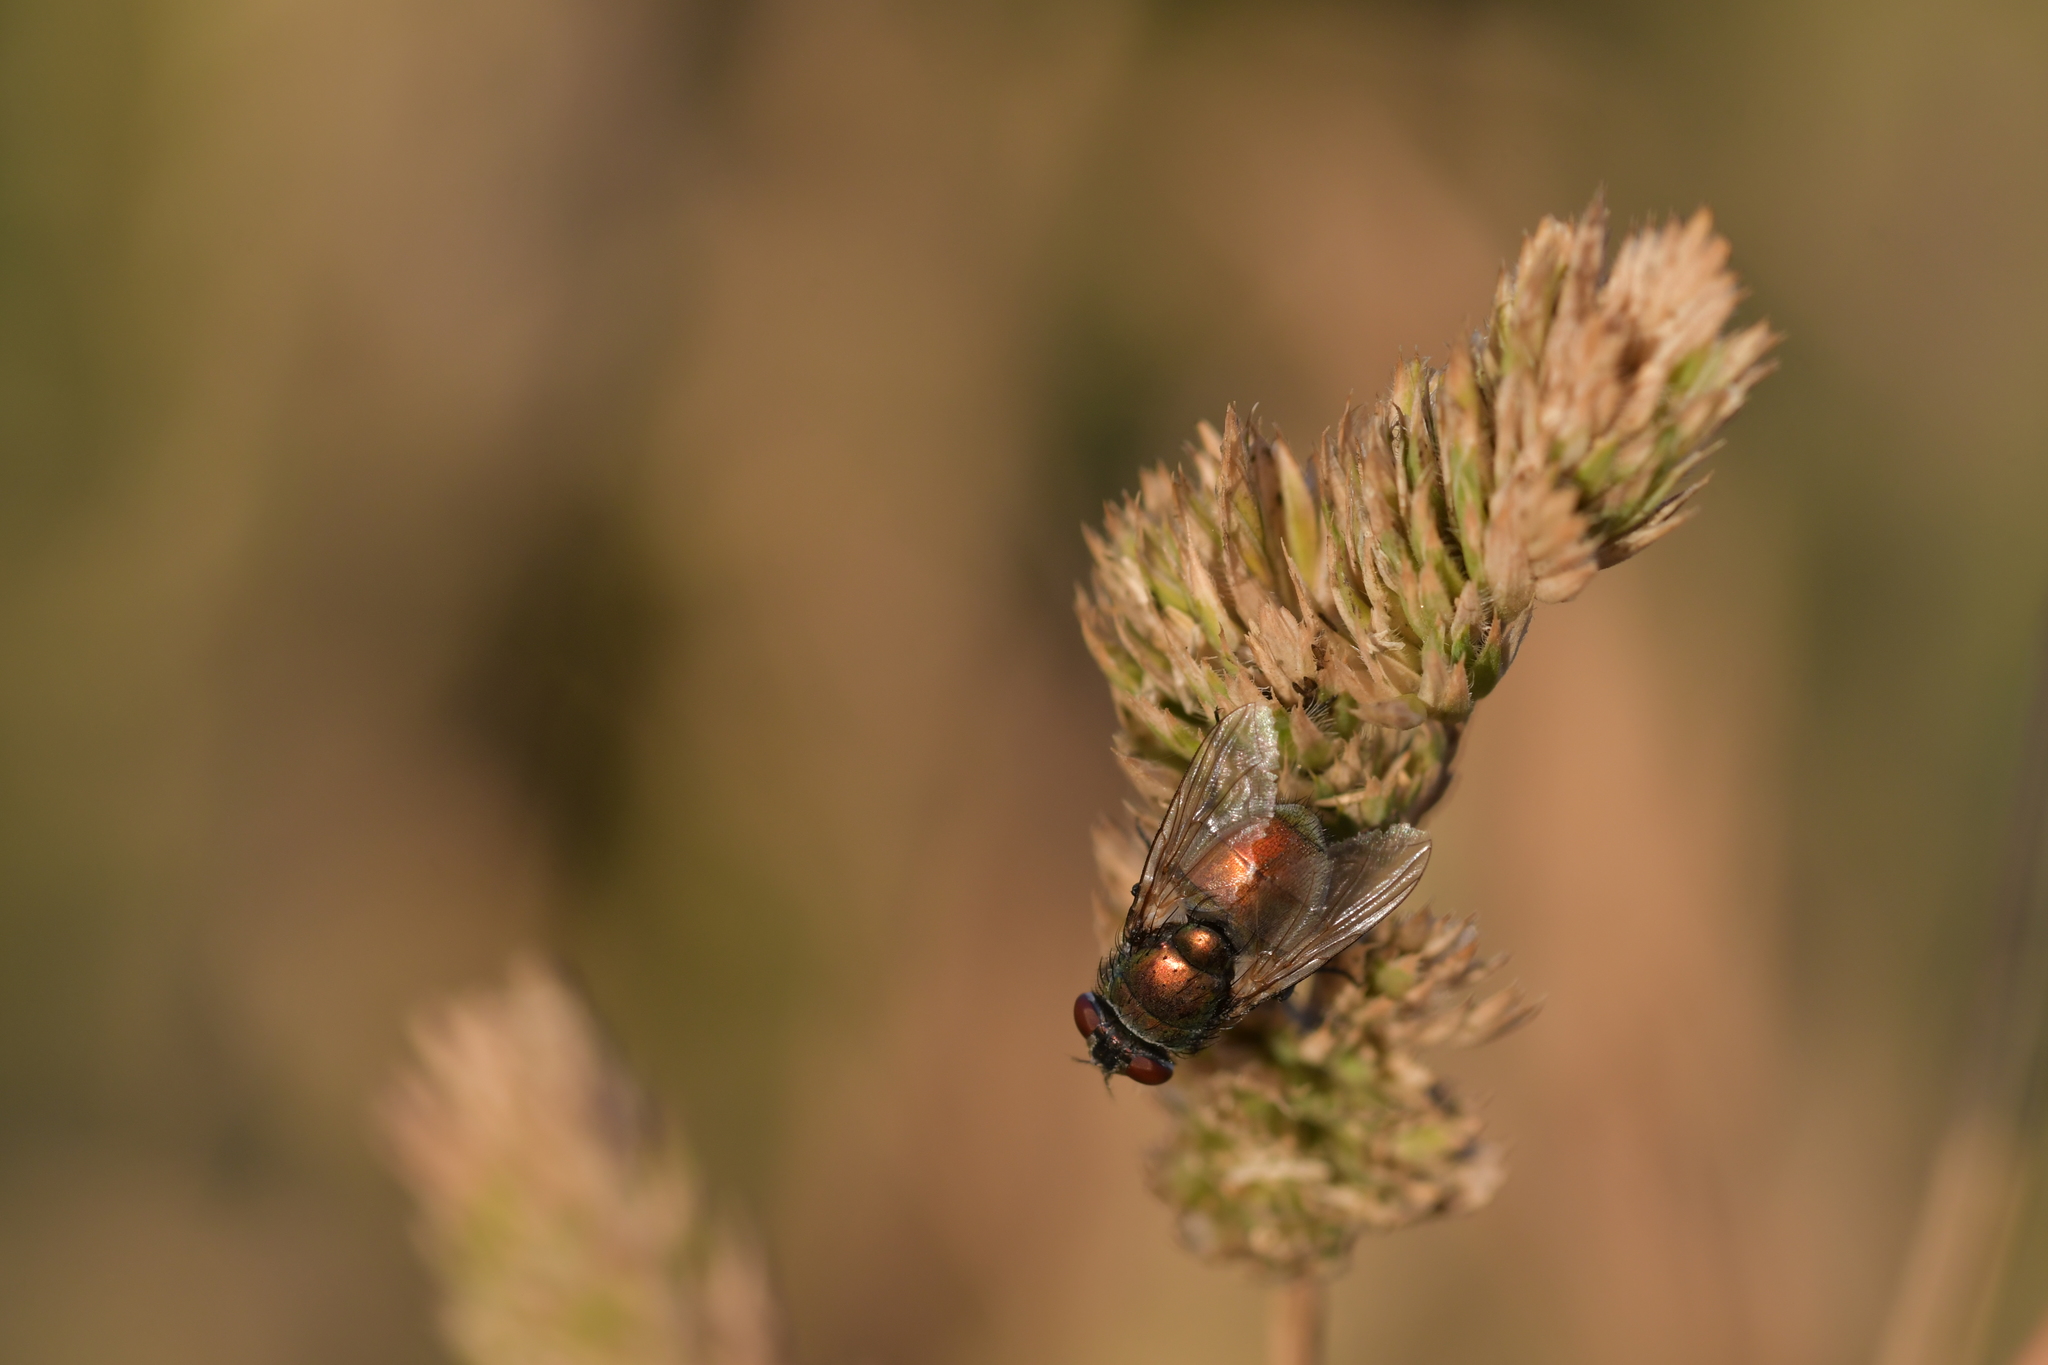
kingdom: Animalia
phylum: Arthropoda
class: Insecta
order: Diptera
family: Calliphoridae
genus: Lucilia
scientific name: Lucilia sericata
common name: Blow fly
